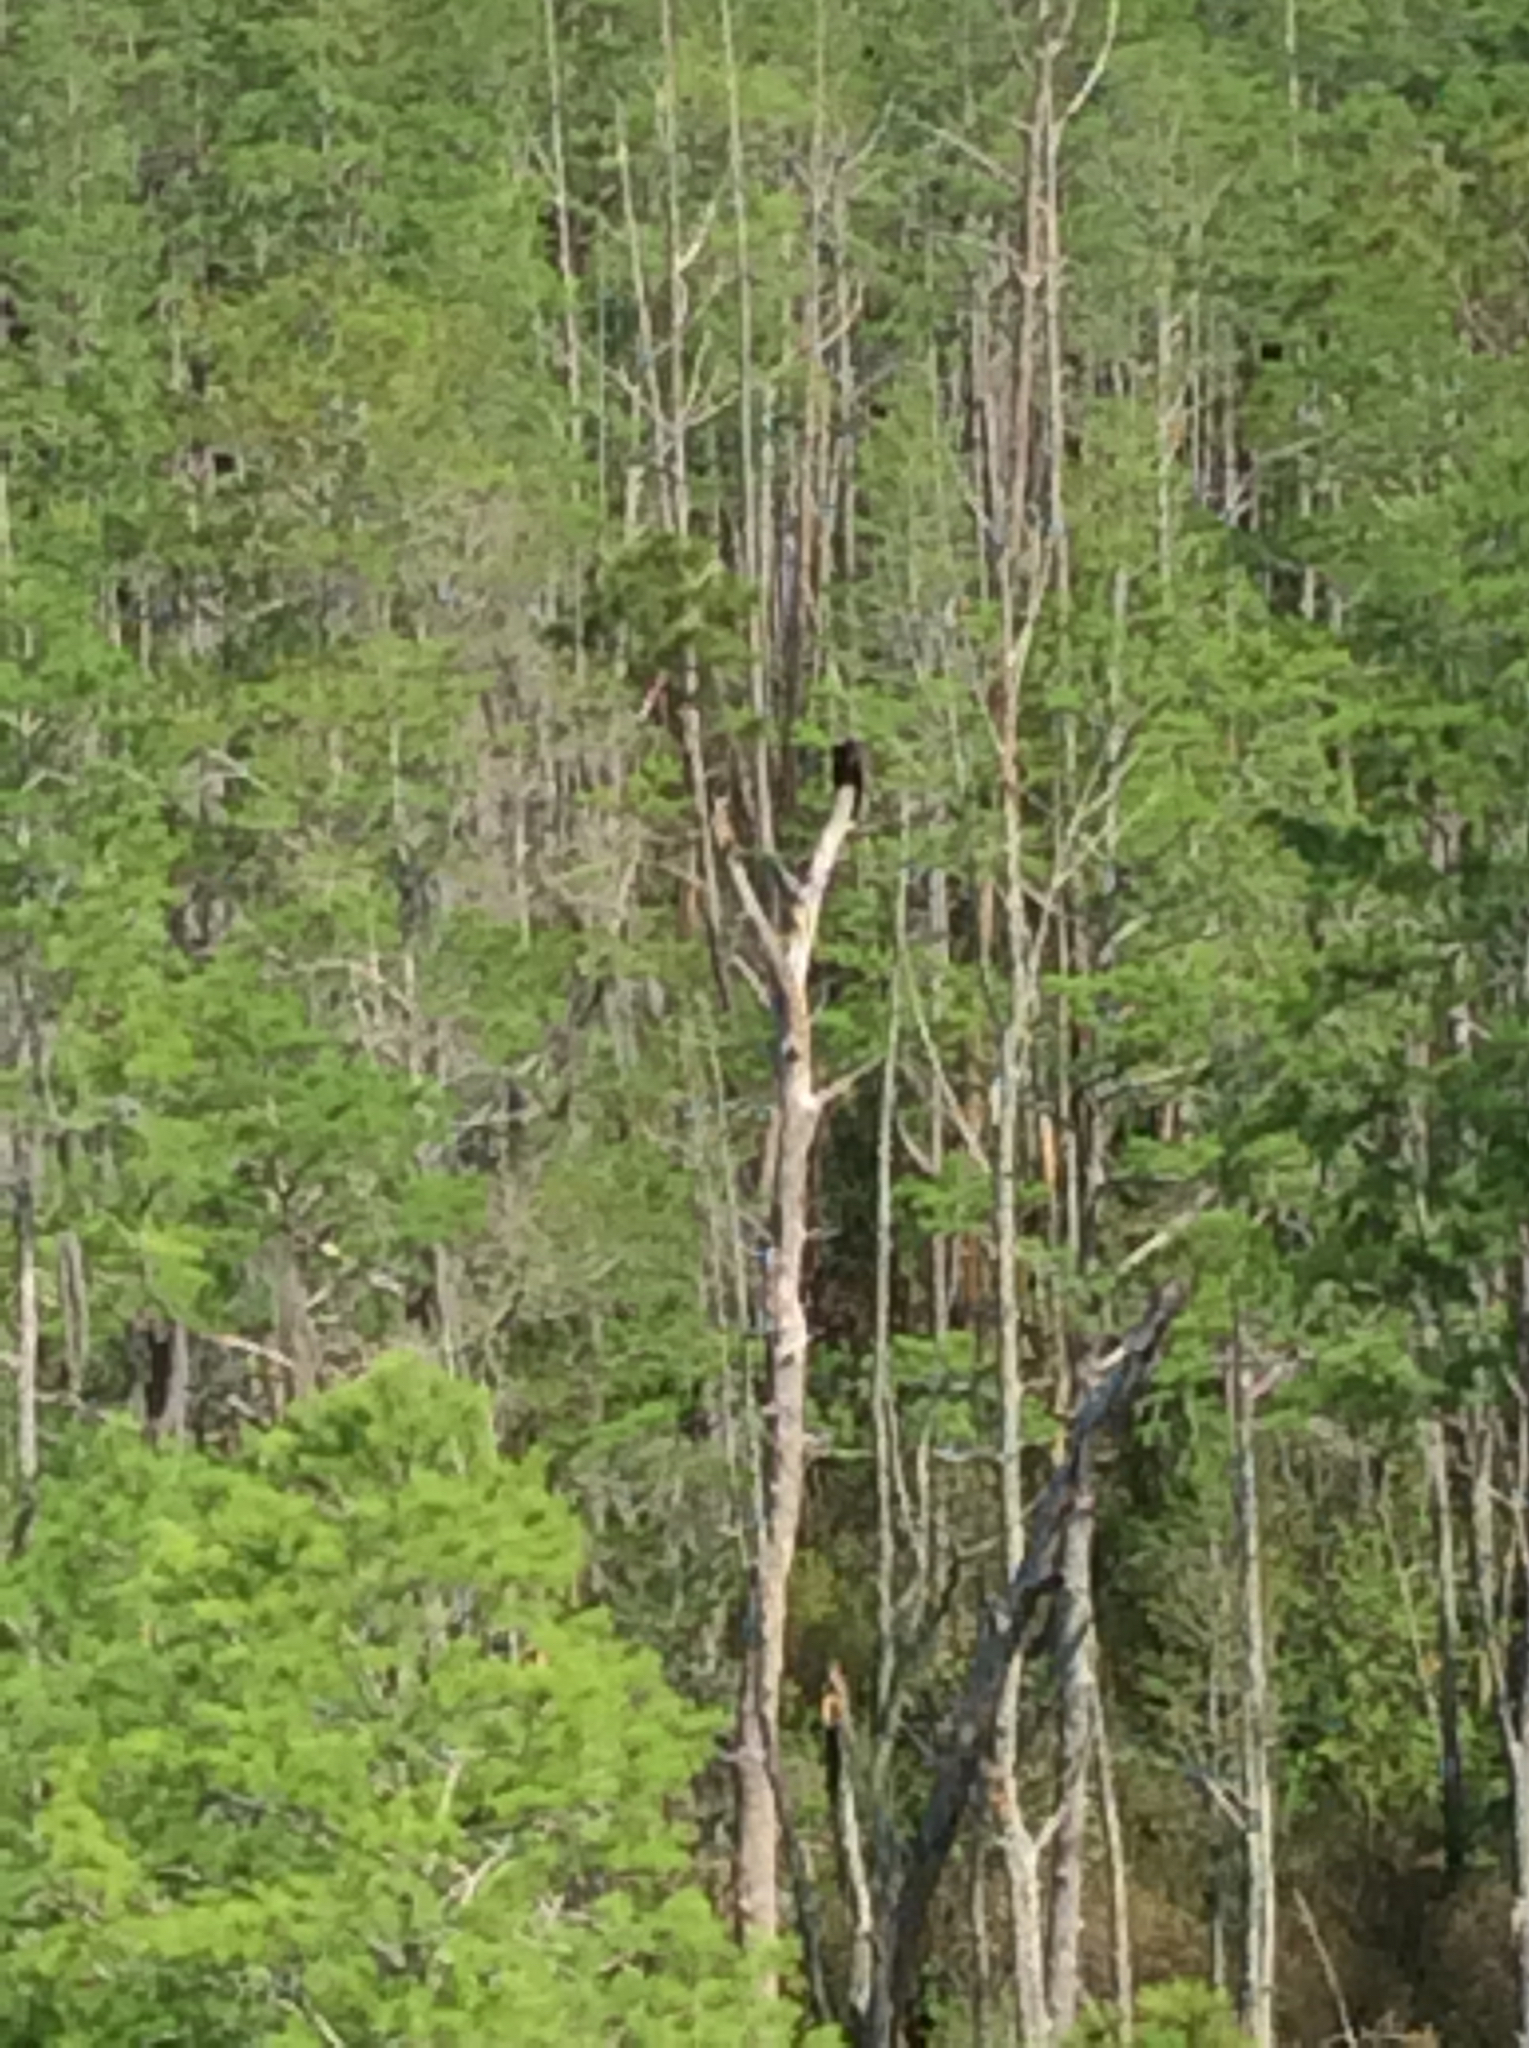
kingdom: Animalia
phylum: Chordata
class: Aves
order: Accipitriformes
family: Cathartidae
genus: Cathartes
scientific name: Cathartes aura
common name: Turkey vulture
